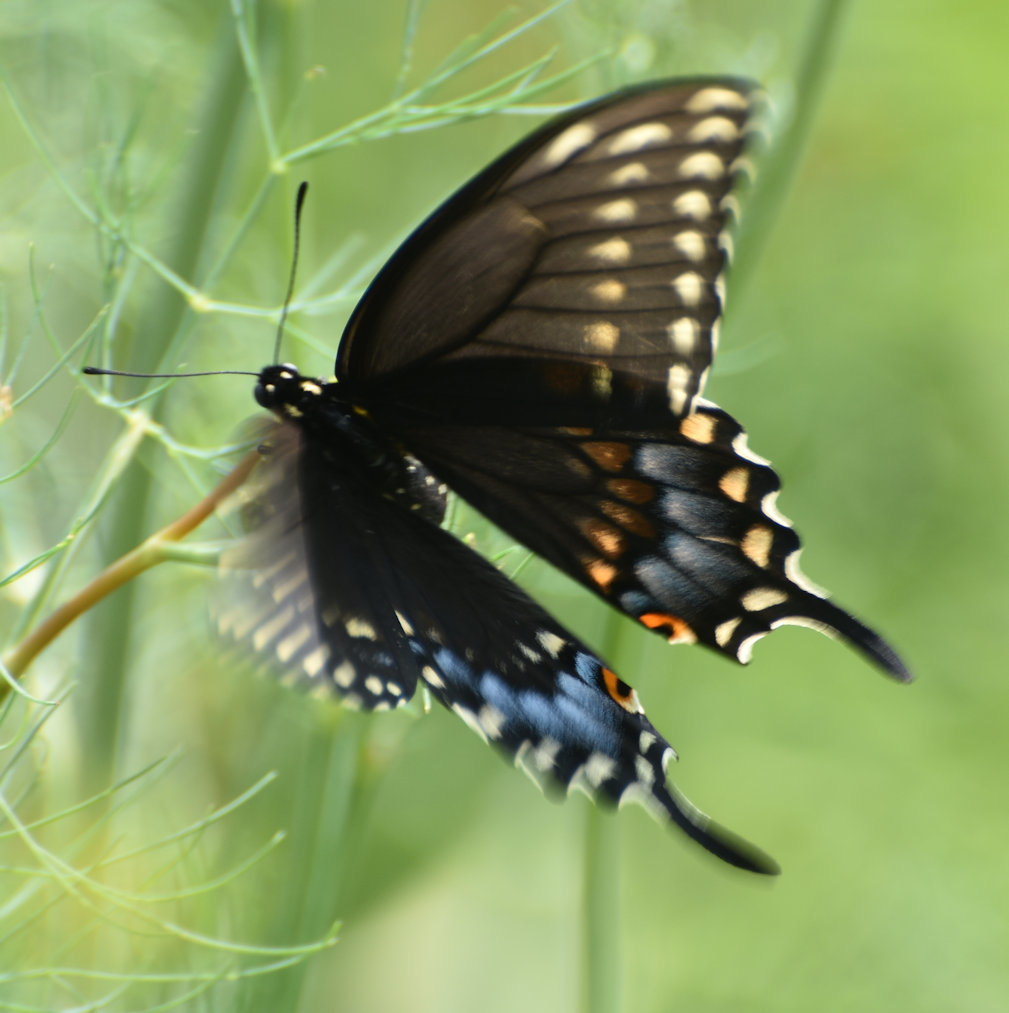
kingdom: Animalia
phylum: Arthropoda
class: Insecta
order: Lepidoptera
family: Papilionidae
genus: Papilio
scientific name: Papilio polyxenes
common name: Black swallowtail
